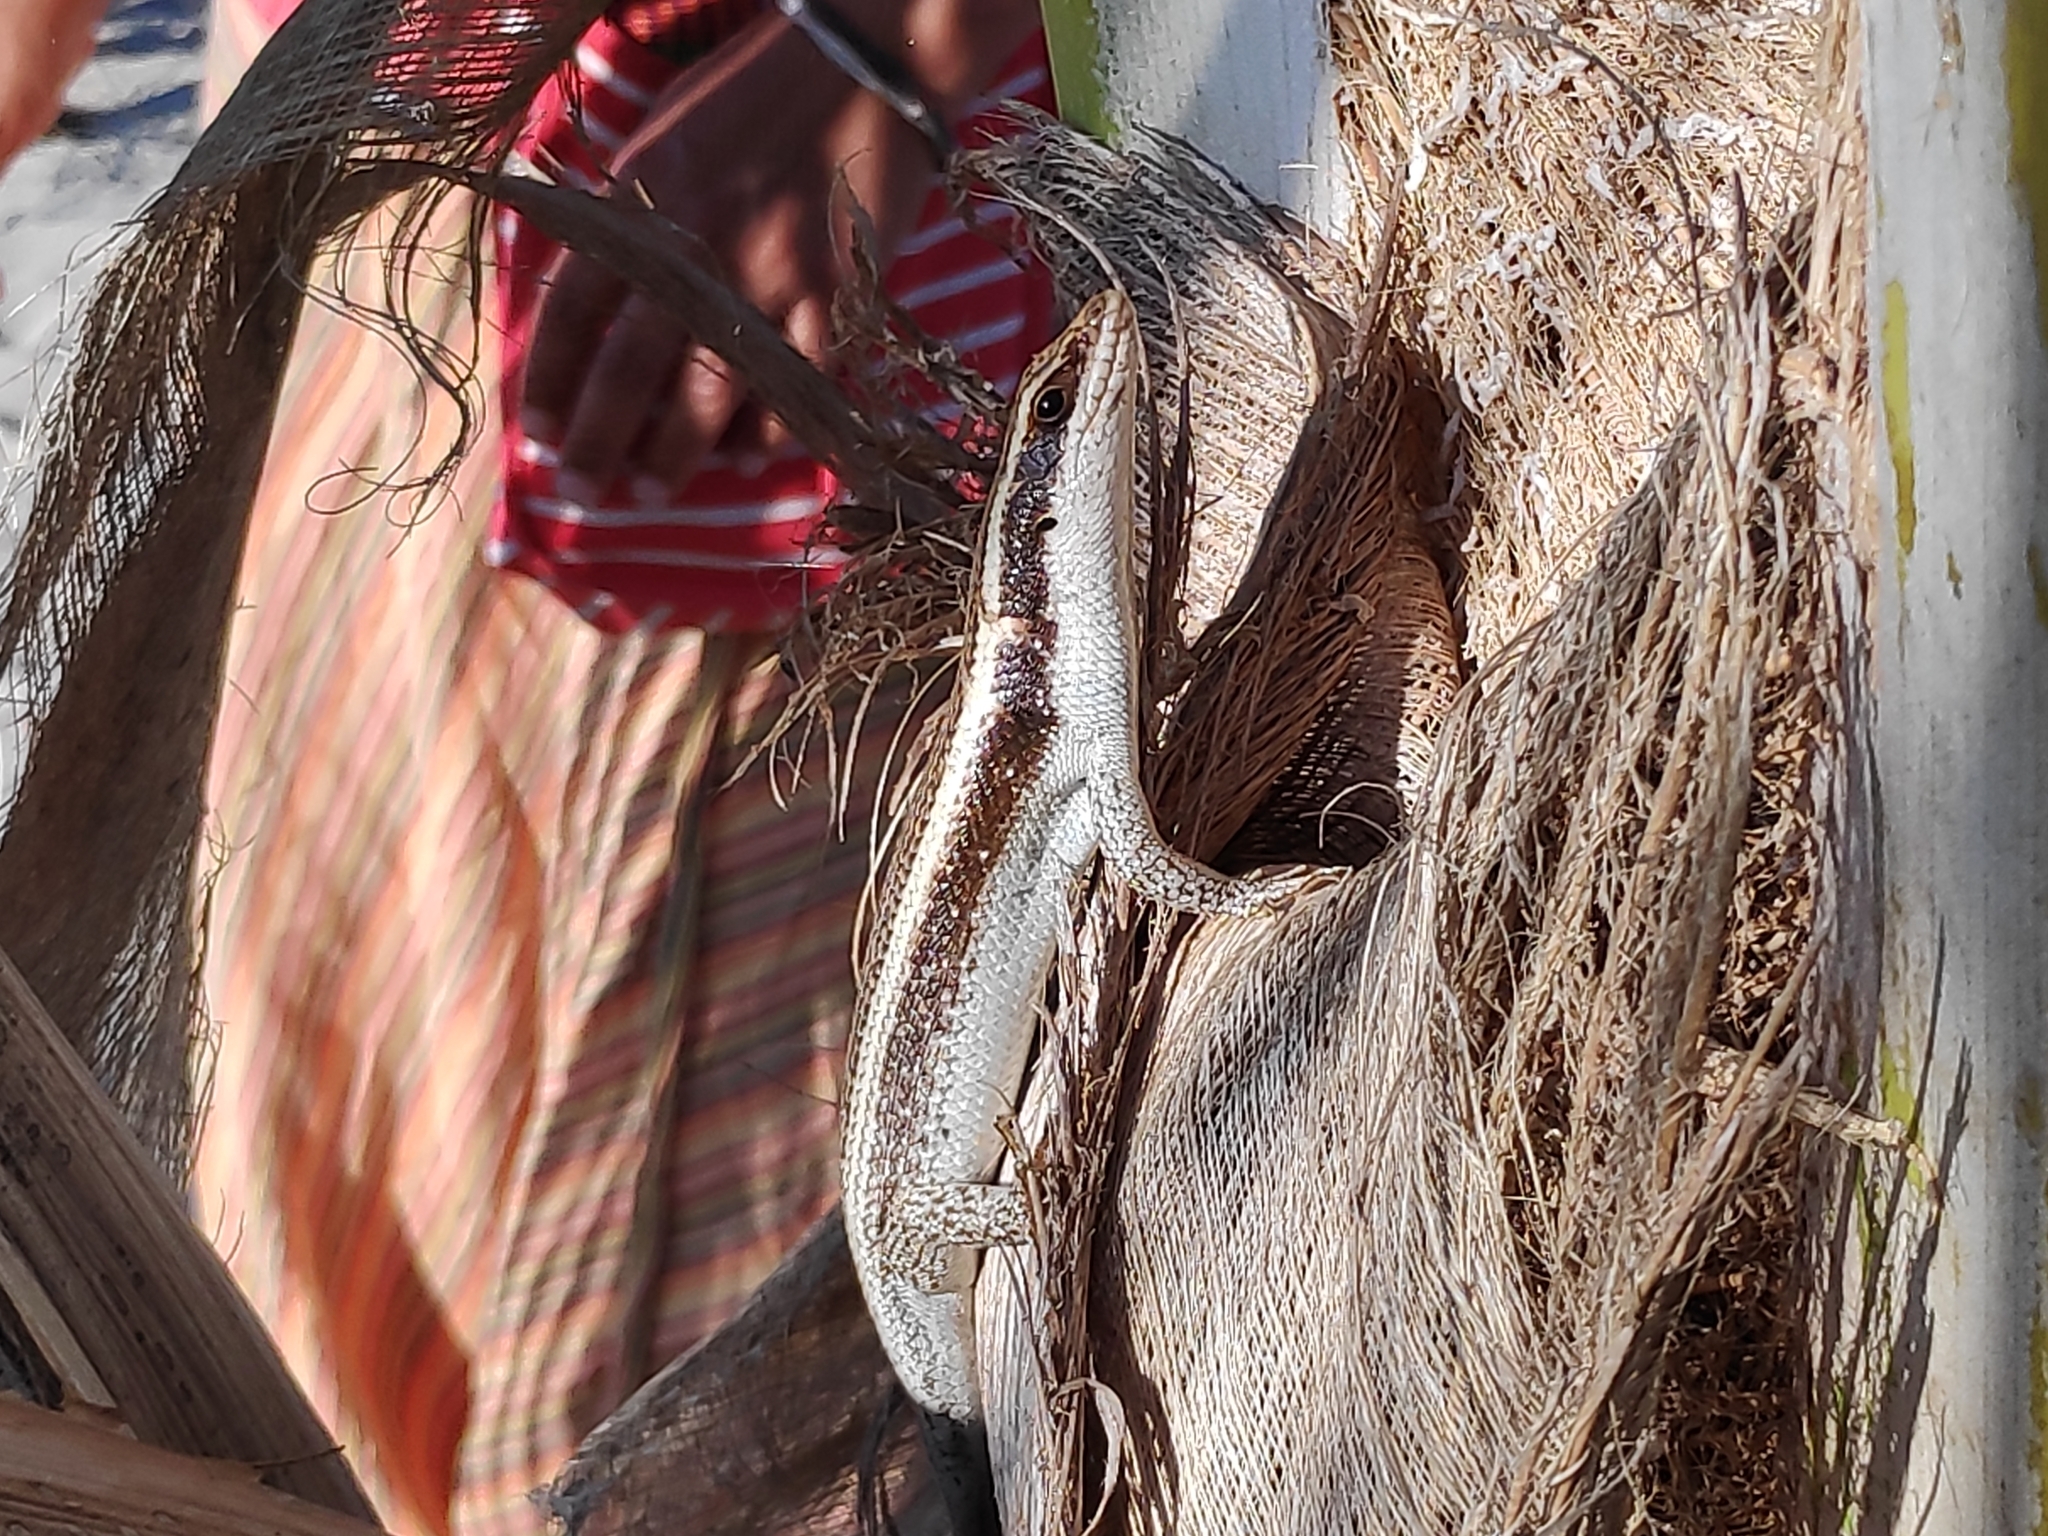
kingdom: Animalia
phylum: Chordata
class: Squamata
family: Scincidae
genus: Trachylepis
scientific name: Trachylepis striata
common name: African striped mabuya
